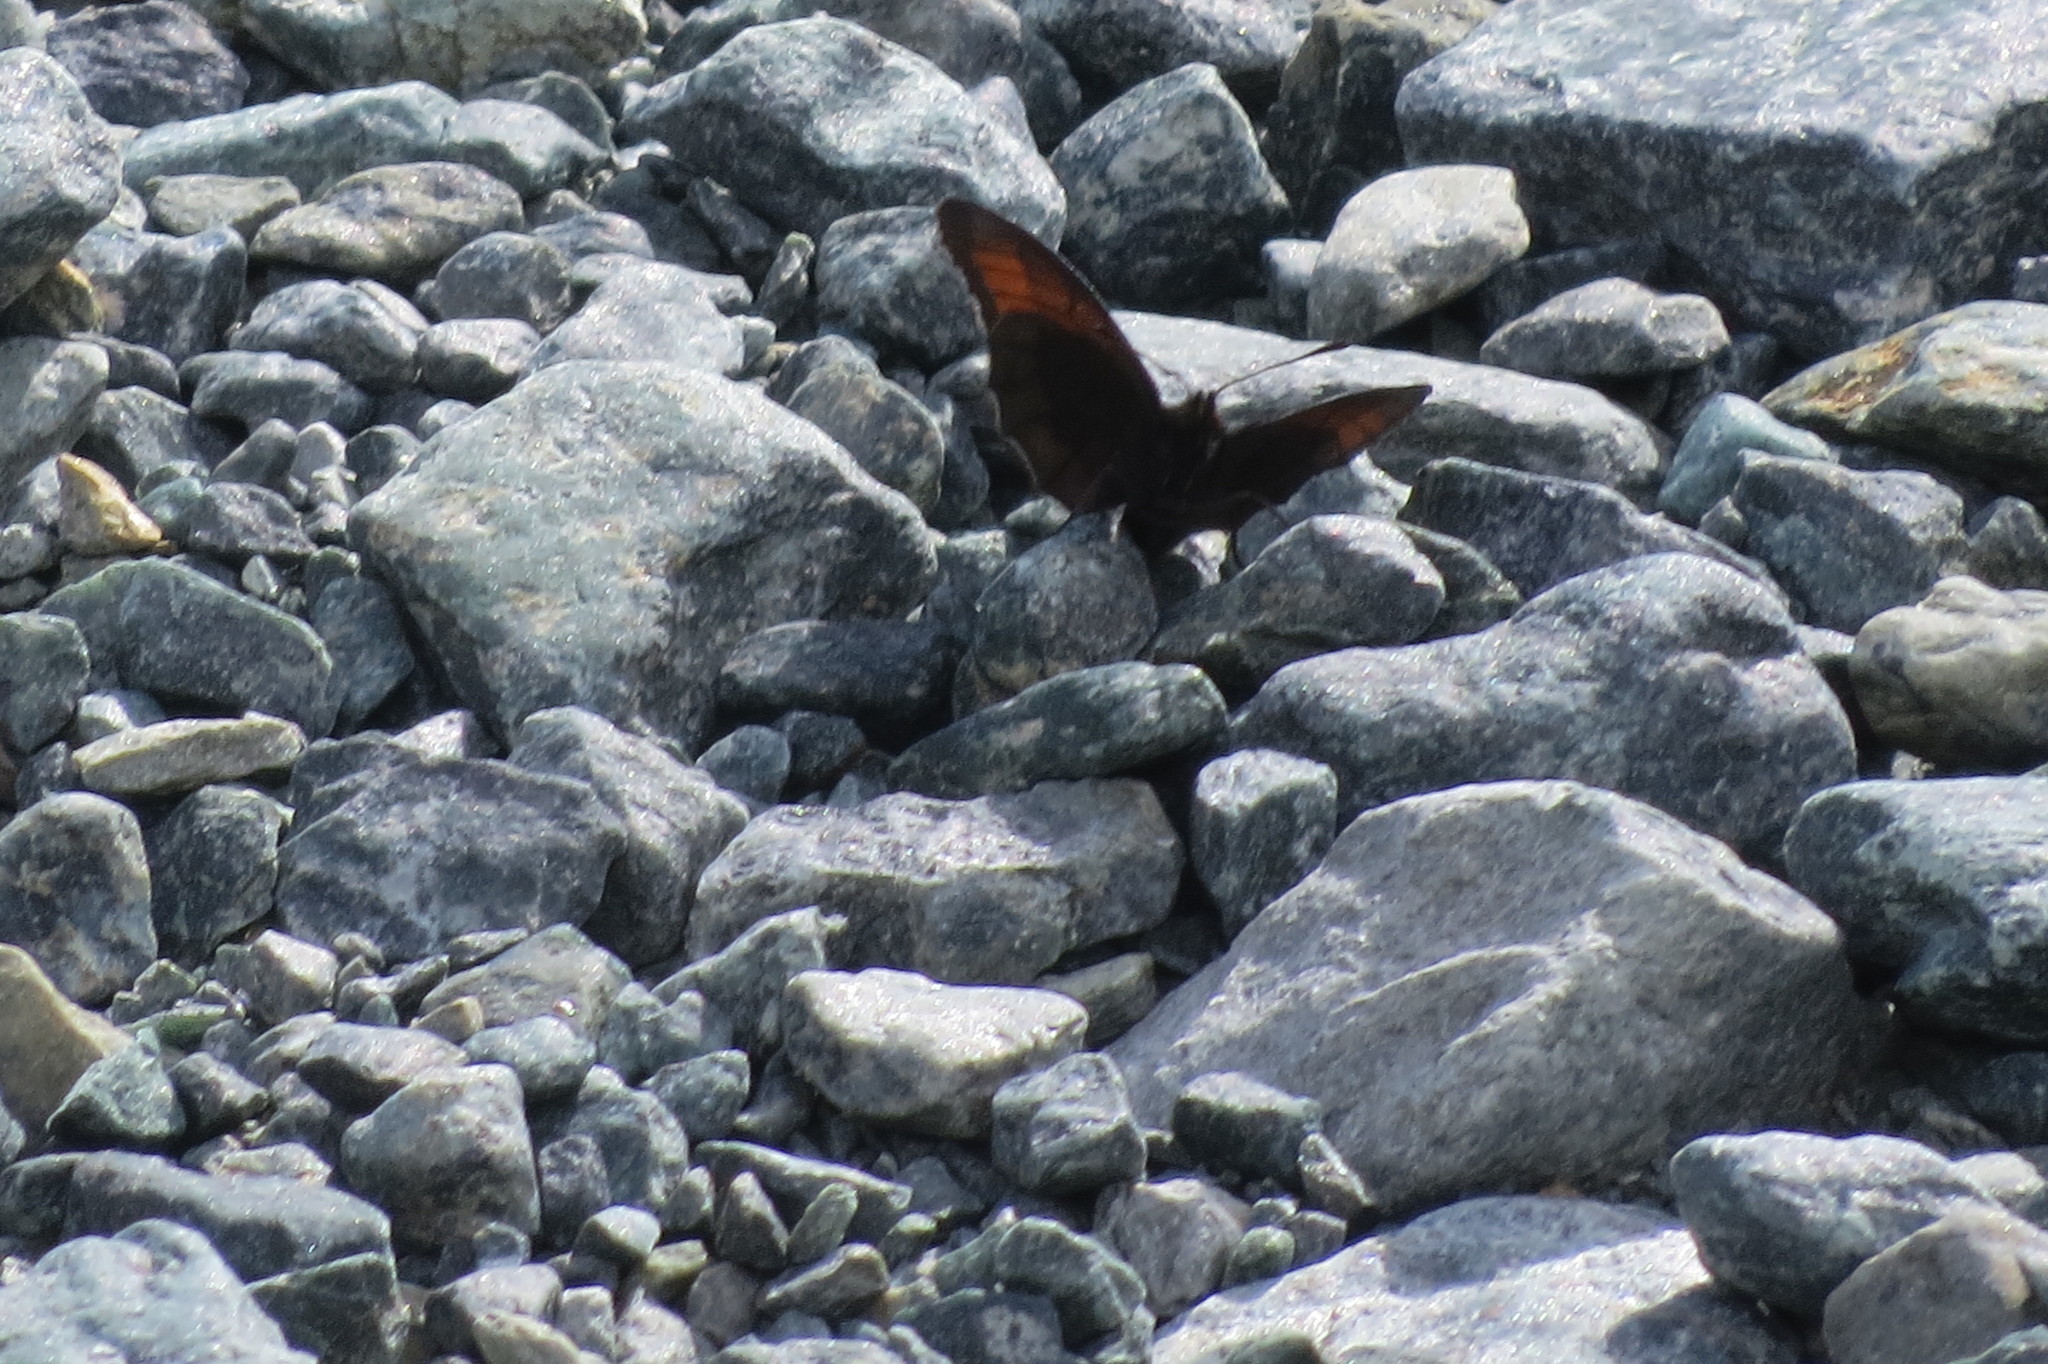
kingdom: Animalia
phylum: Arthropoda
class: Insecta
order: Lepidoptera
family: Nymphalidae
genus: Erebia
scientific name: Erebia pluto
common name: Sooty ringlet
